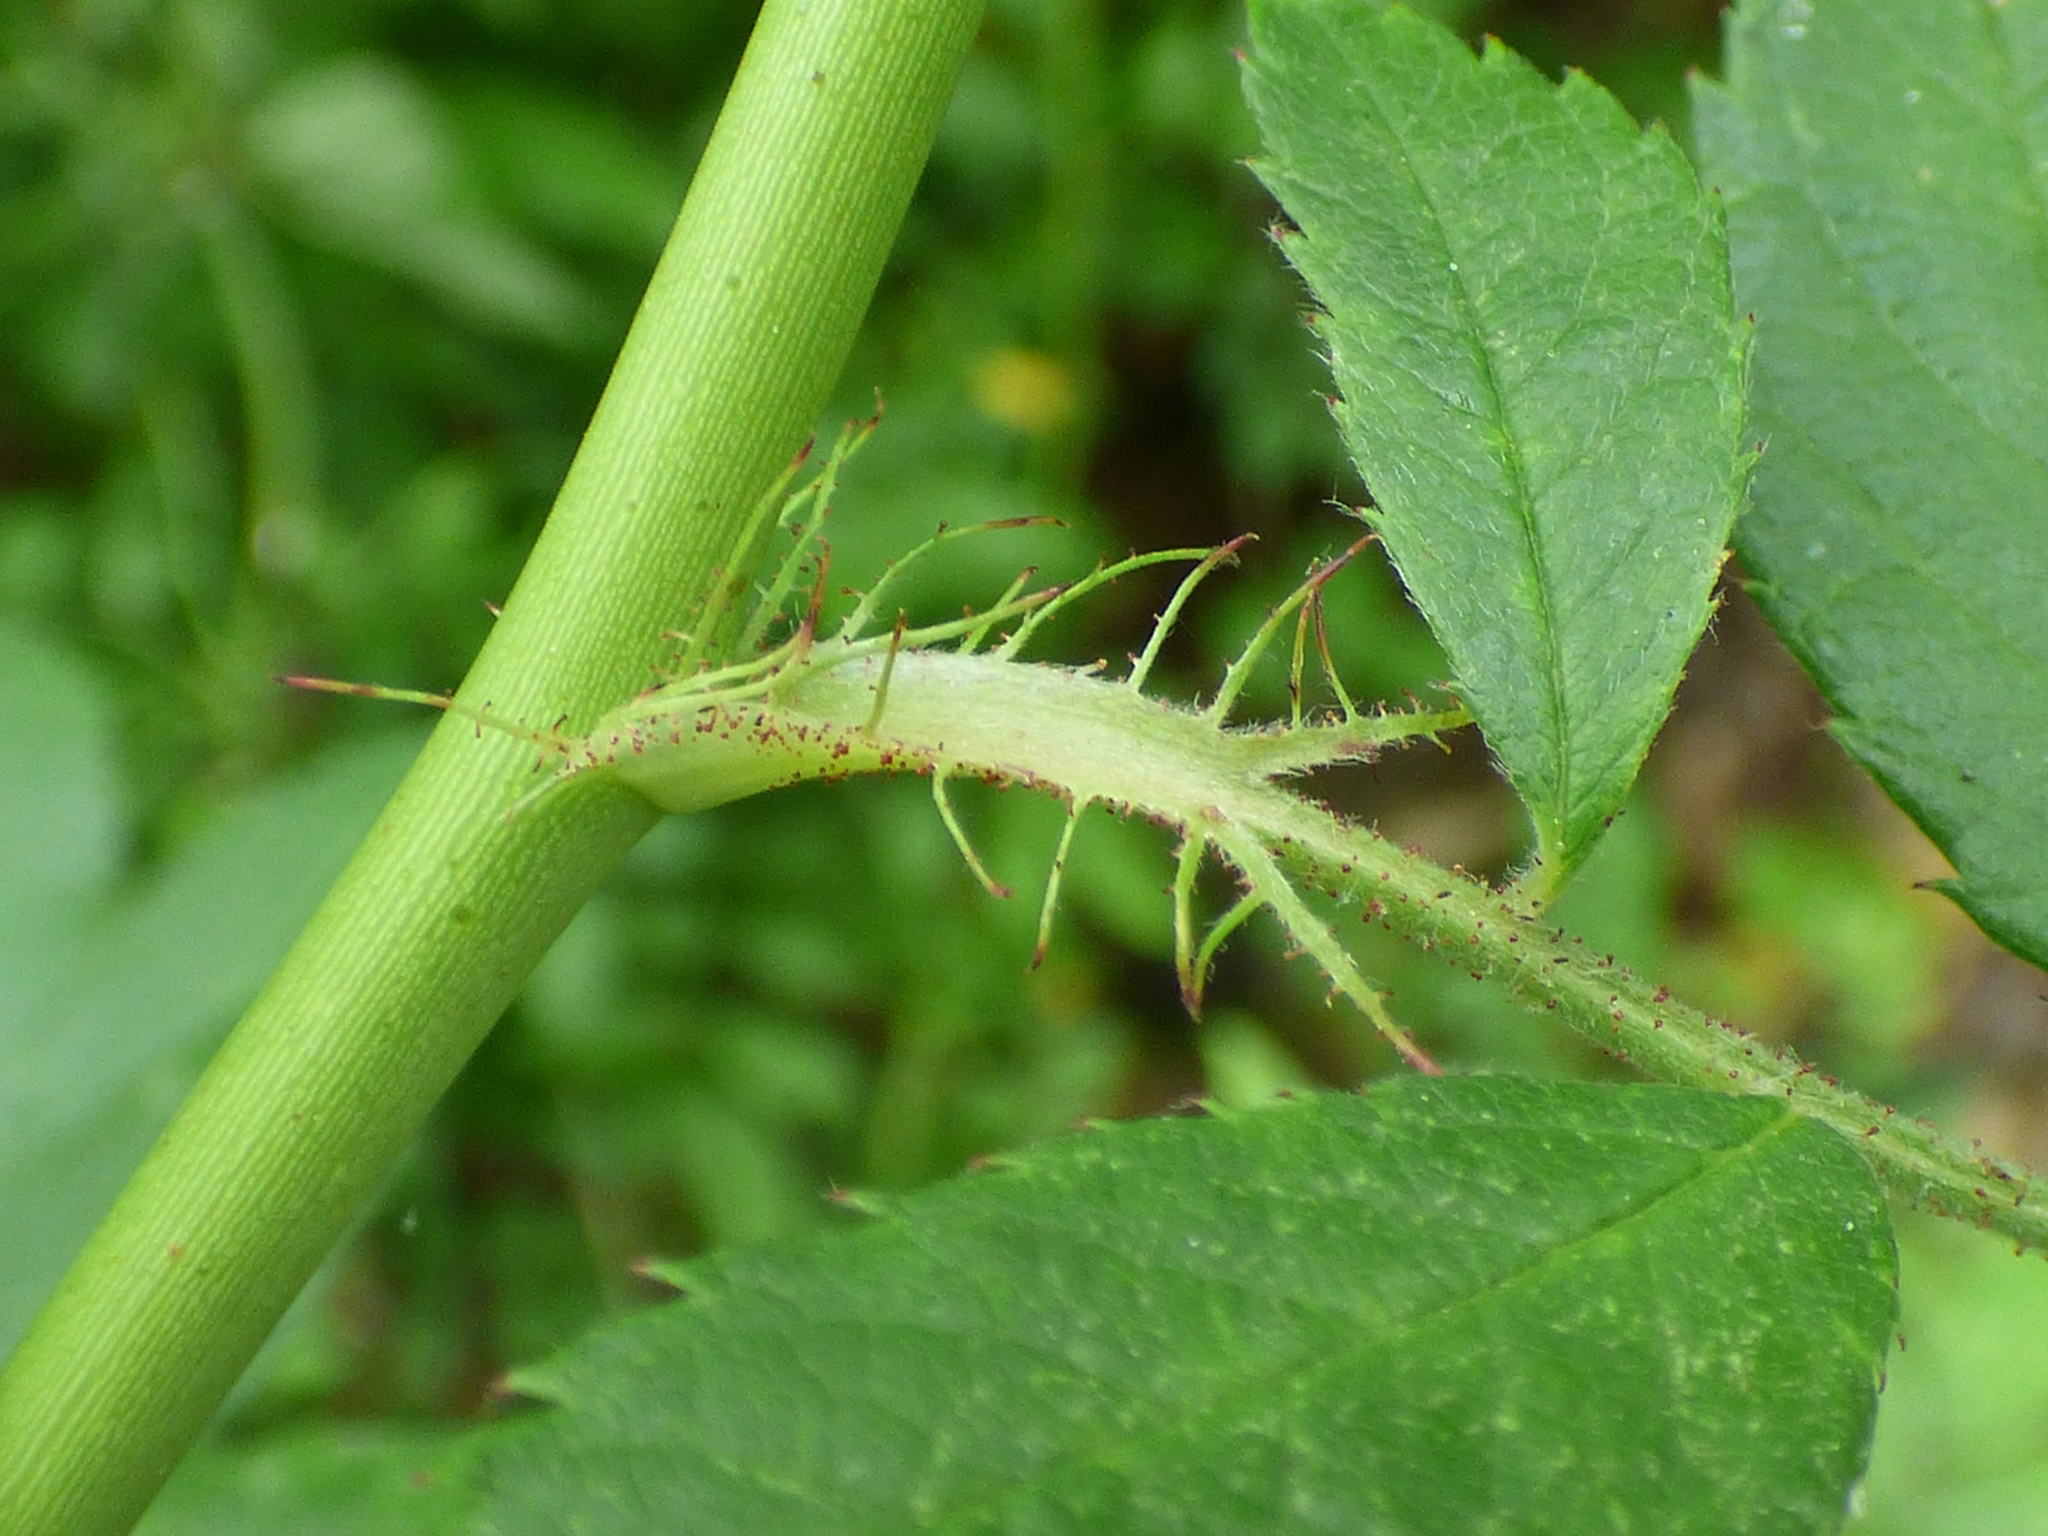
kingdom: Plantae
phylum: Tracheophyta
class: Magnoliopsida
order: Rosales
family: Rosaceae
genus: Rosa
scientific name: Rosa multiflora
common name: Multiflora rose
